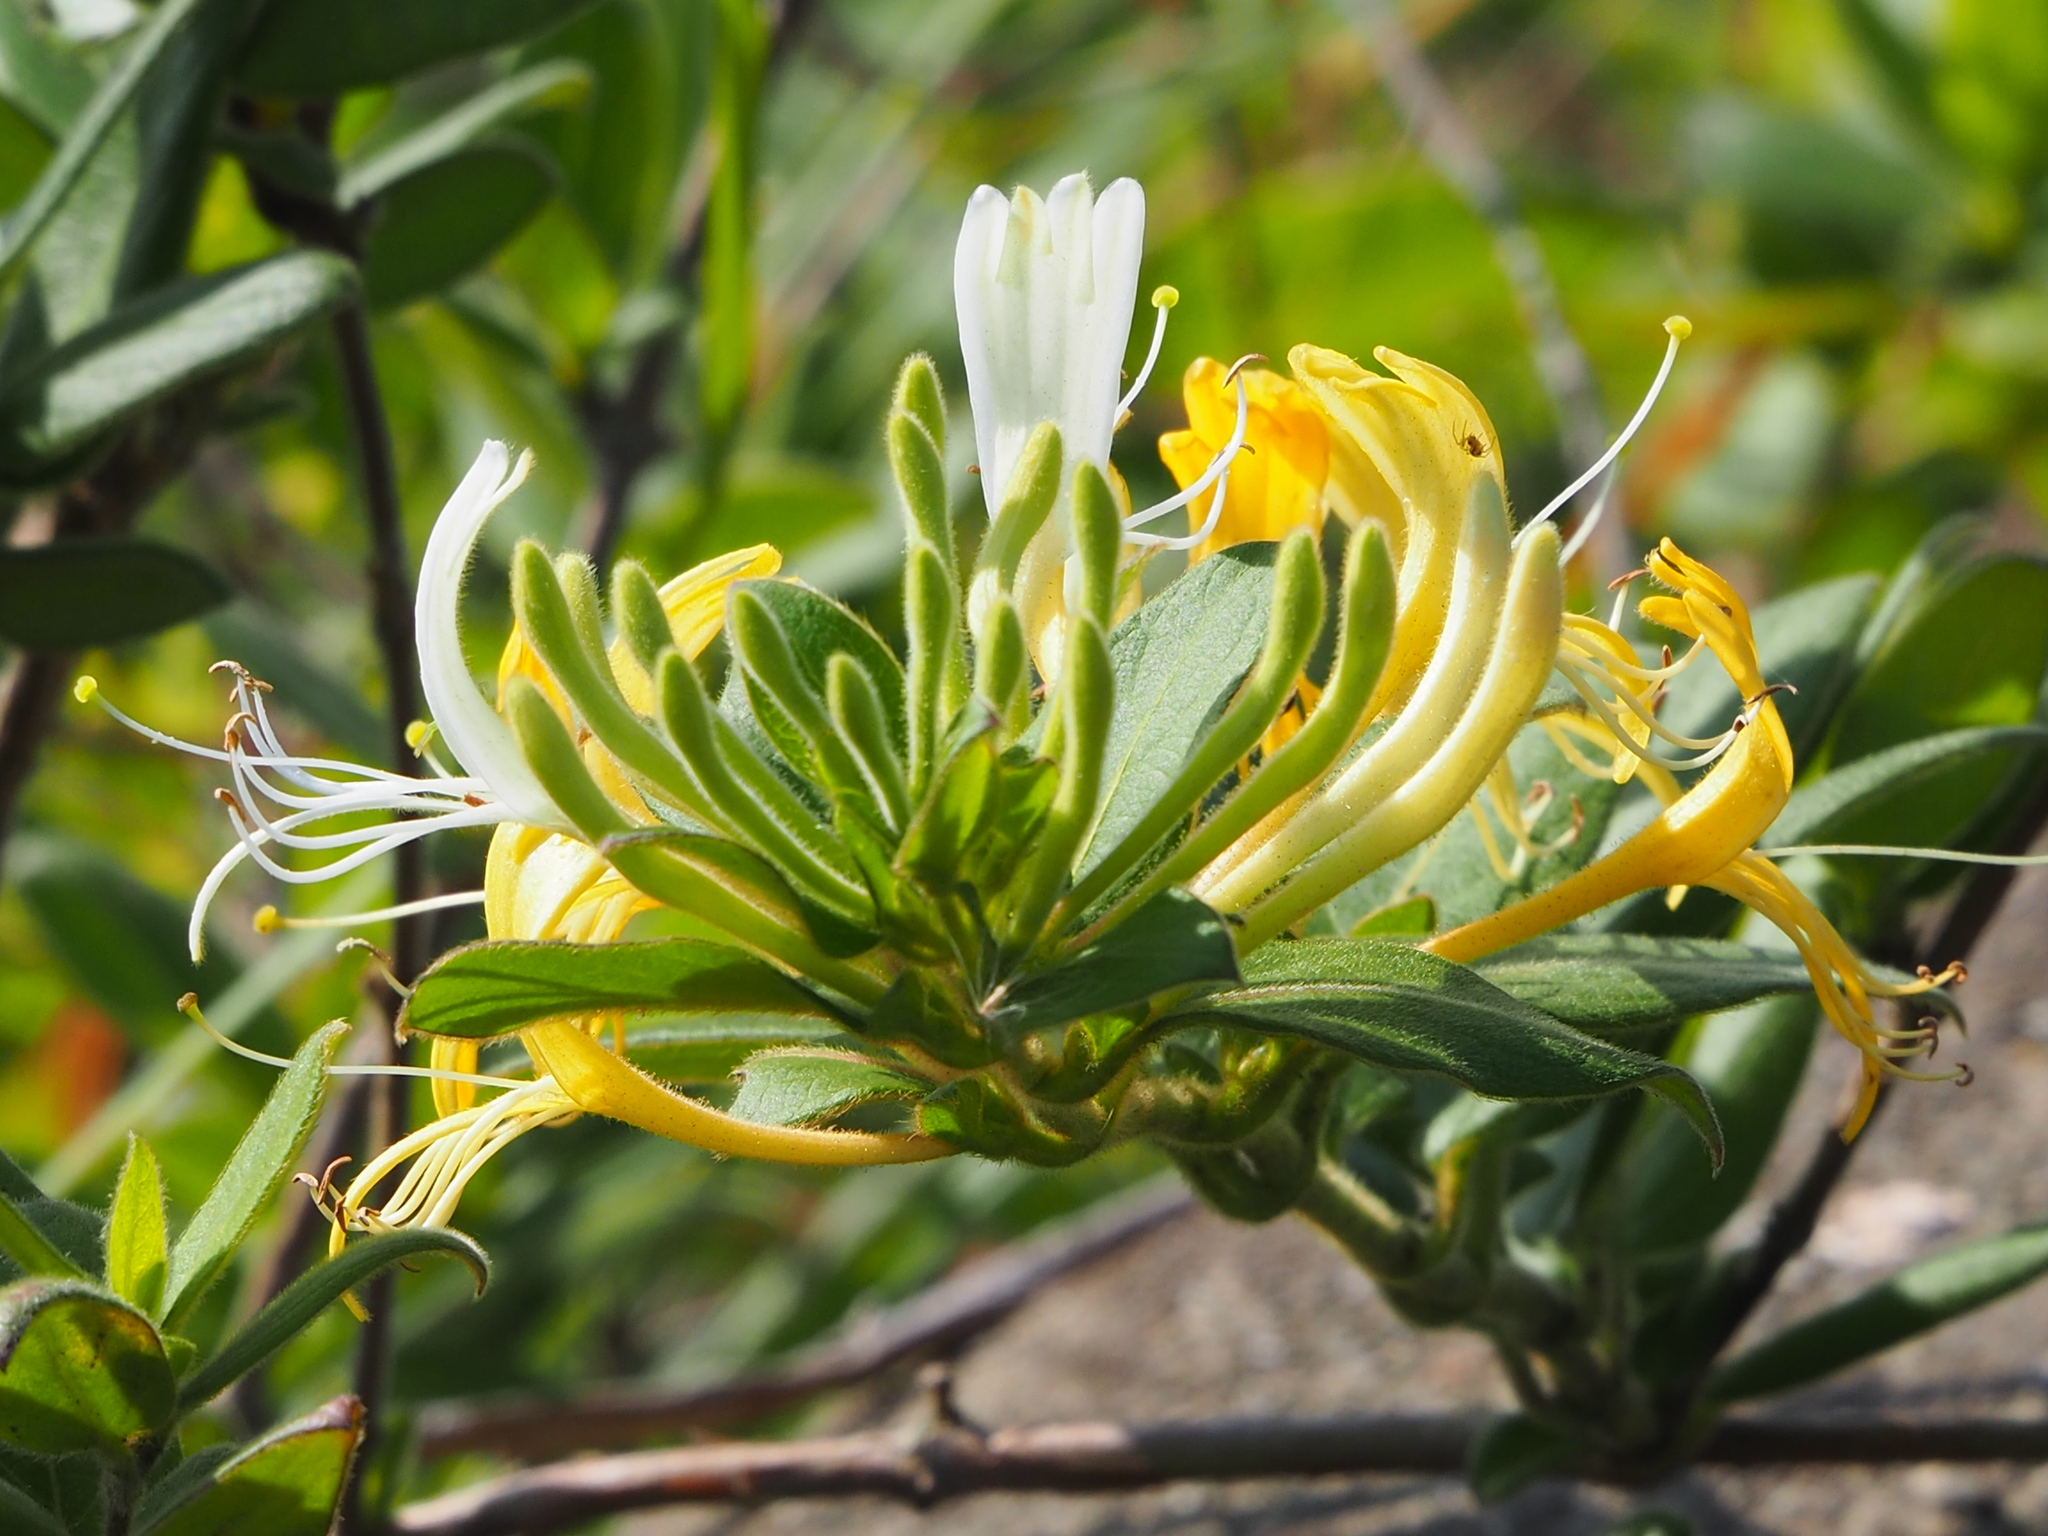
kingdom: Plantae
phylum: Tracheophyta
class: Magnoliopsida
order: Dipsacales
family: Caprifoliaceae
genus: Lonicera
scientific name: Lonicera japonica
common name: Japanese honeysuckle
